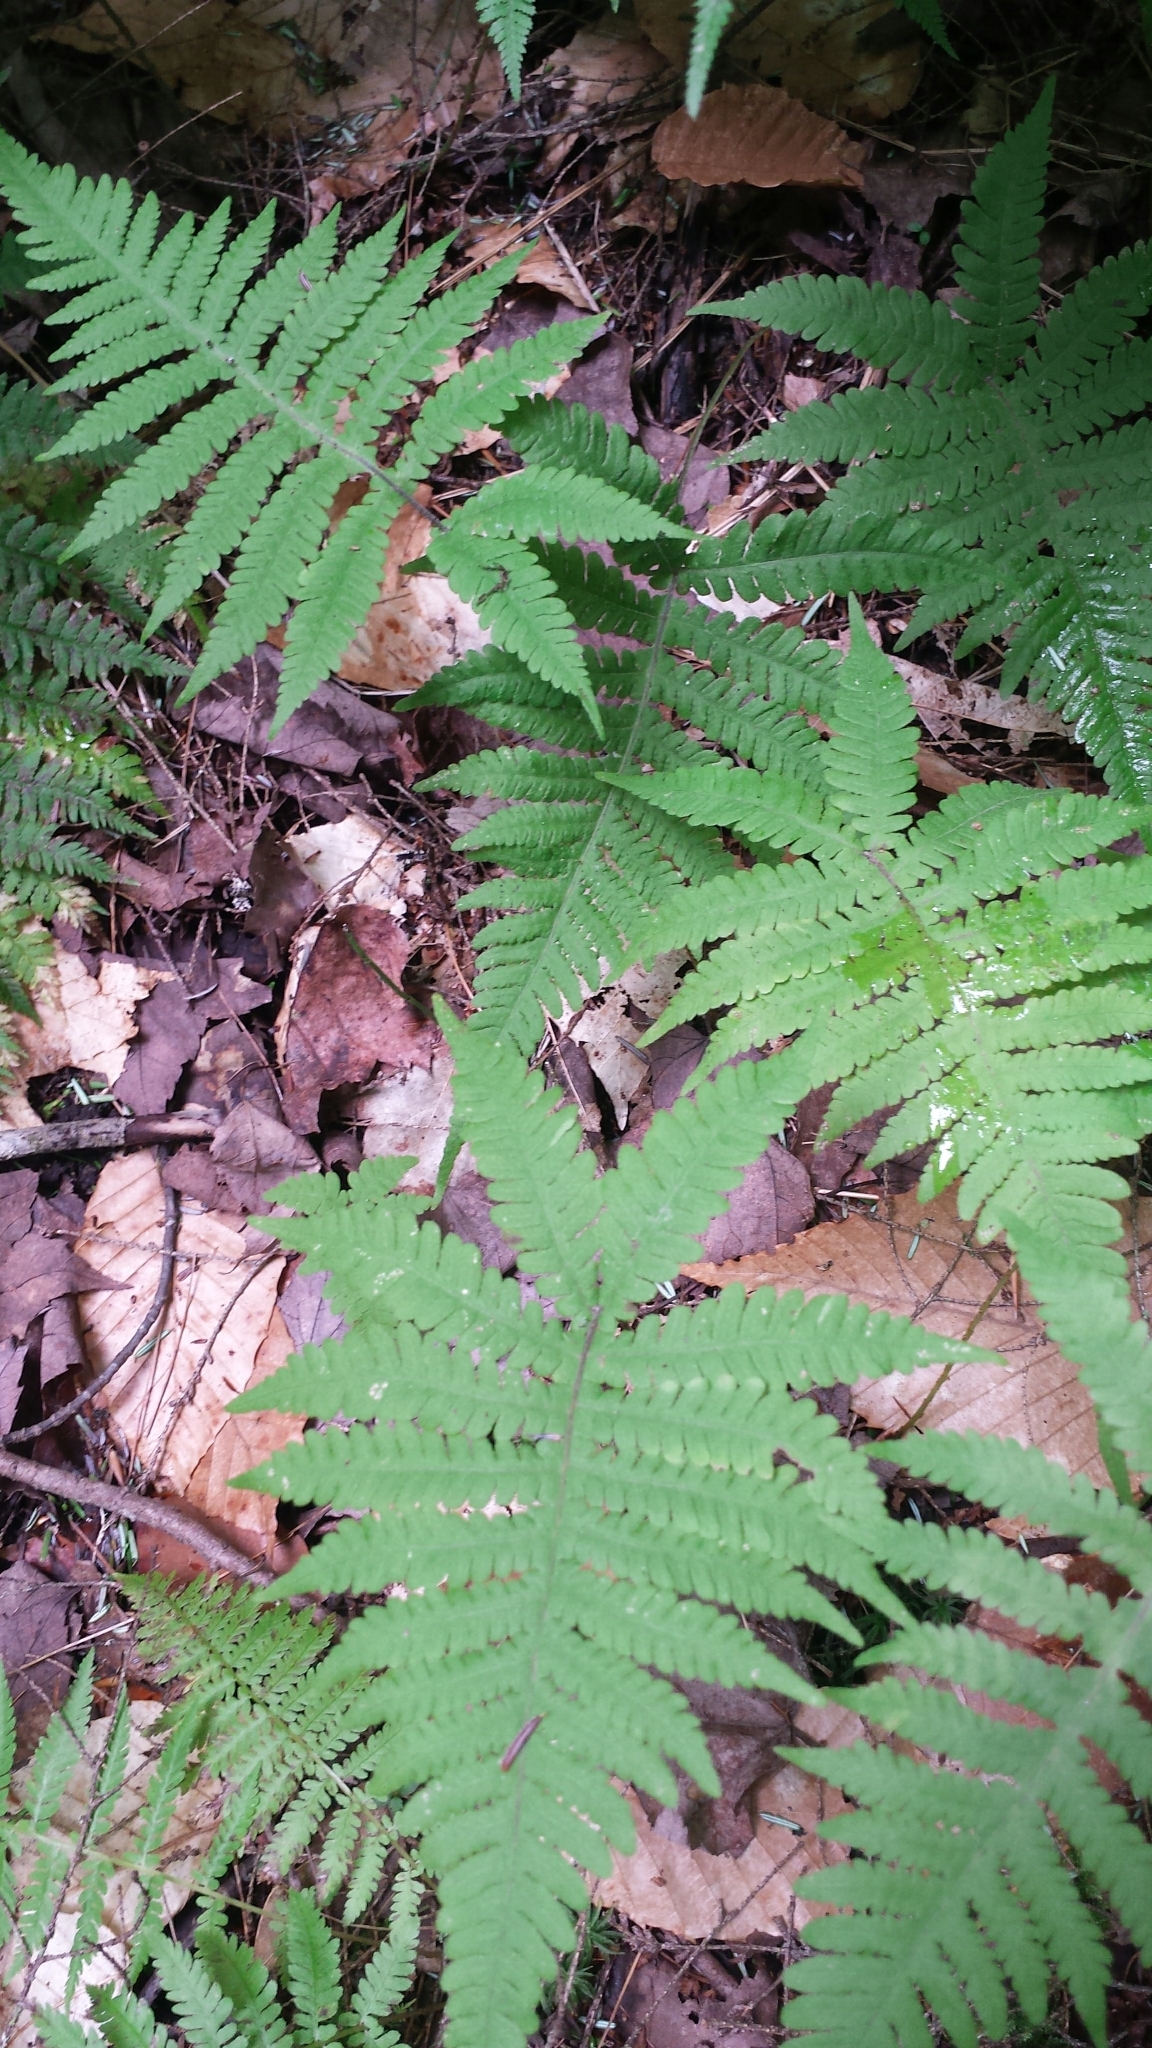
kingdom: Plantae
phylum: Tracheophyta
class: Polypodiopsida
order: Polypodiales
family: Thelypteridaceae
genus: Phegopteris
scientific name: Phegopteris connectilis
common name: Beech fern
